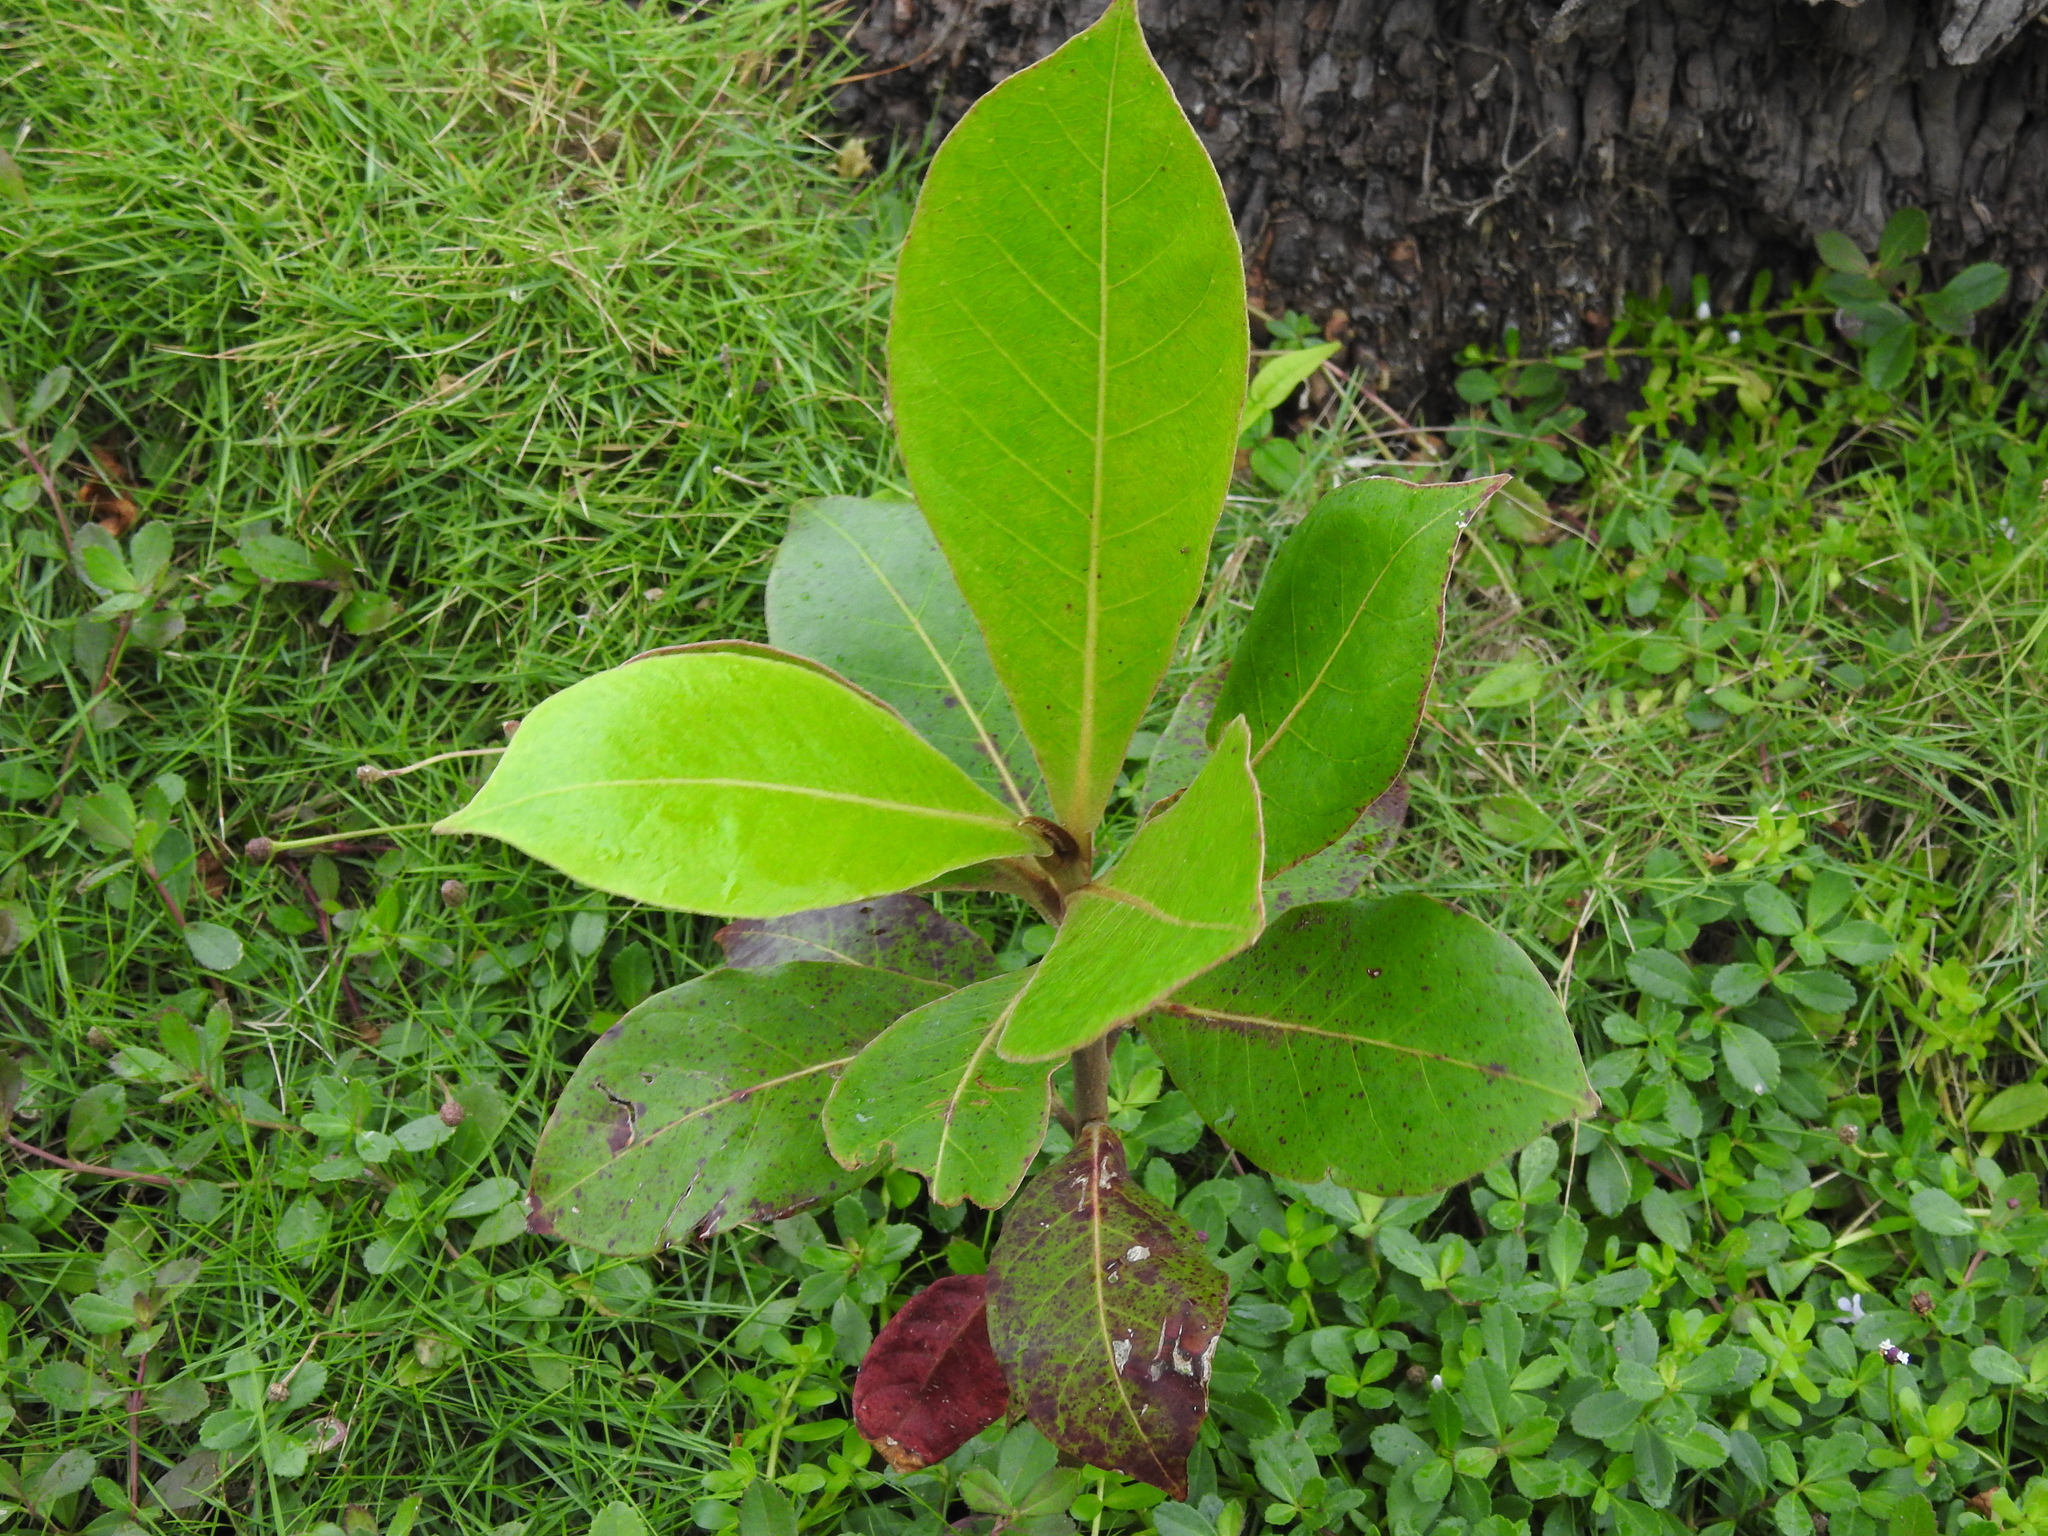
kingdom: Plantae
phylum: Tracheophyta
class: Magnoliopsida
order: Myrtales
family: Combretaceae
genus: Terminalia
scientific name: Terminalia catappa
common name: Tropical almond
